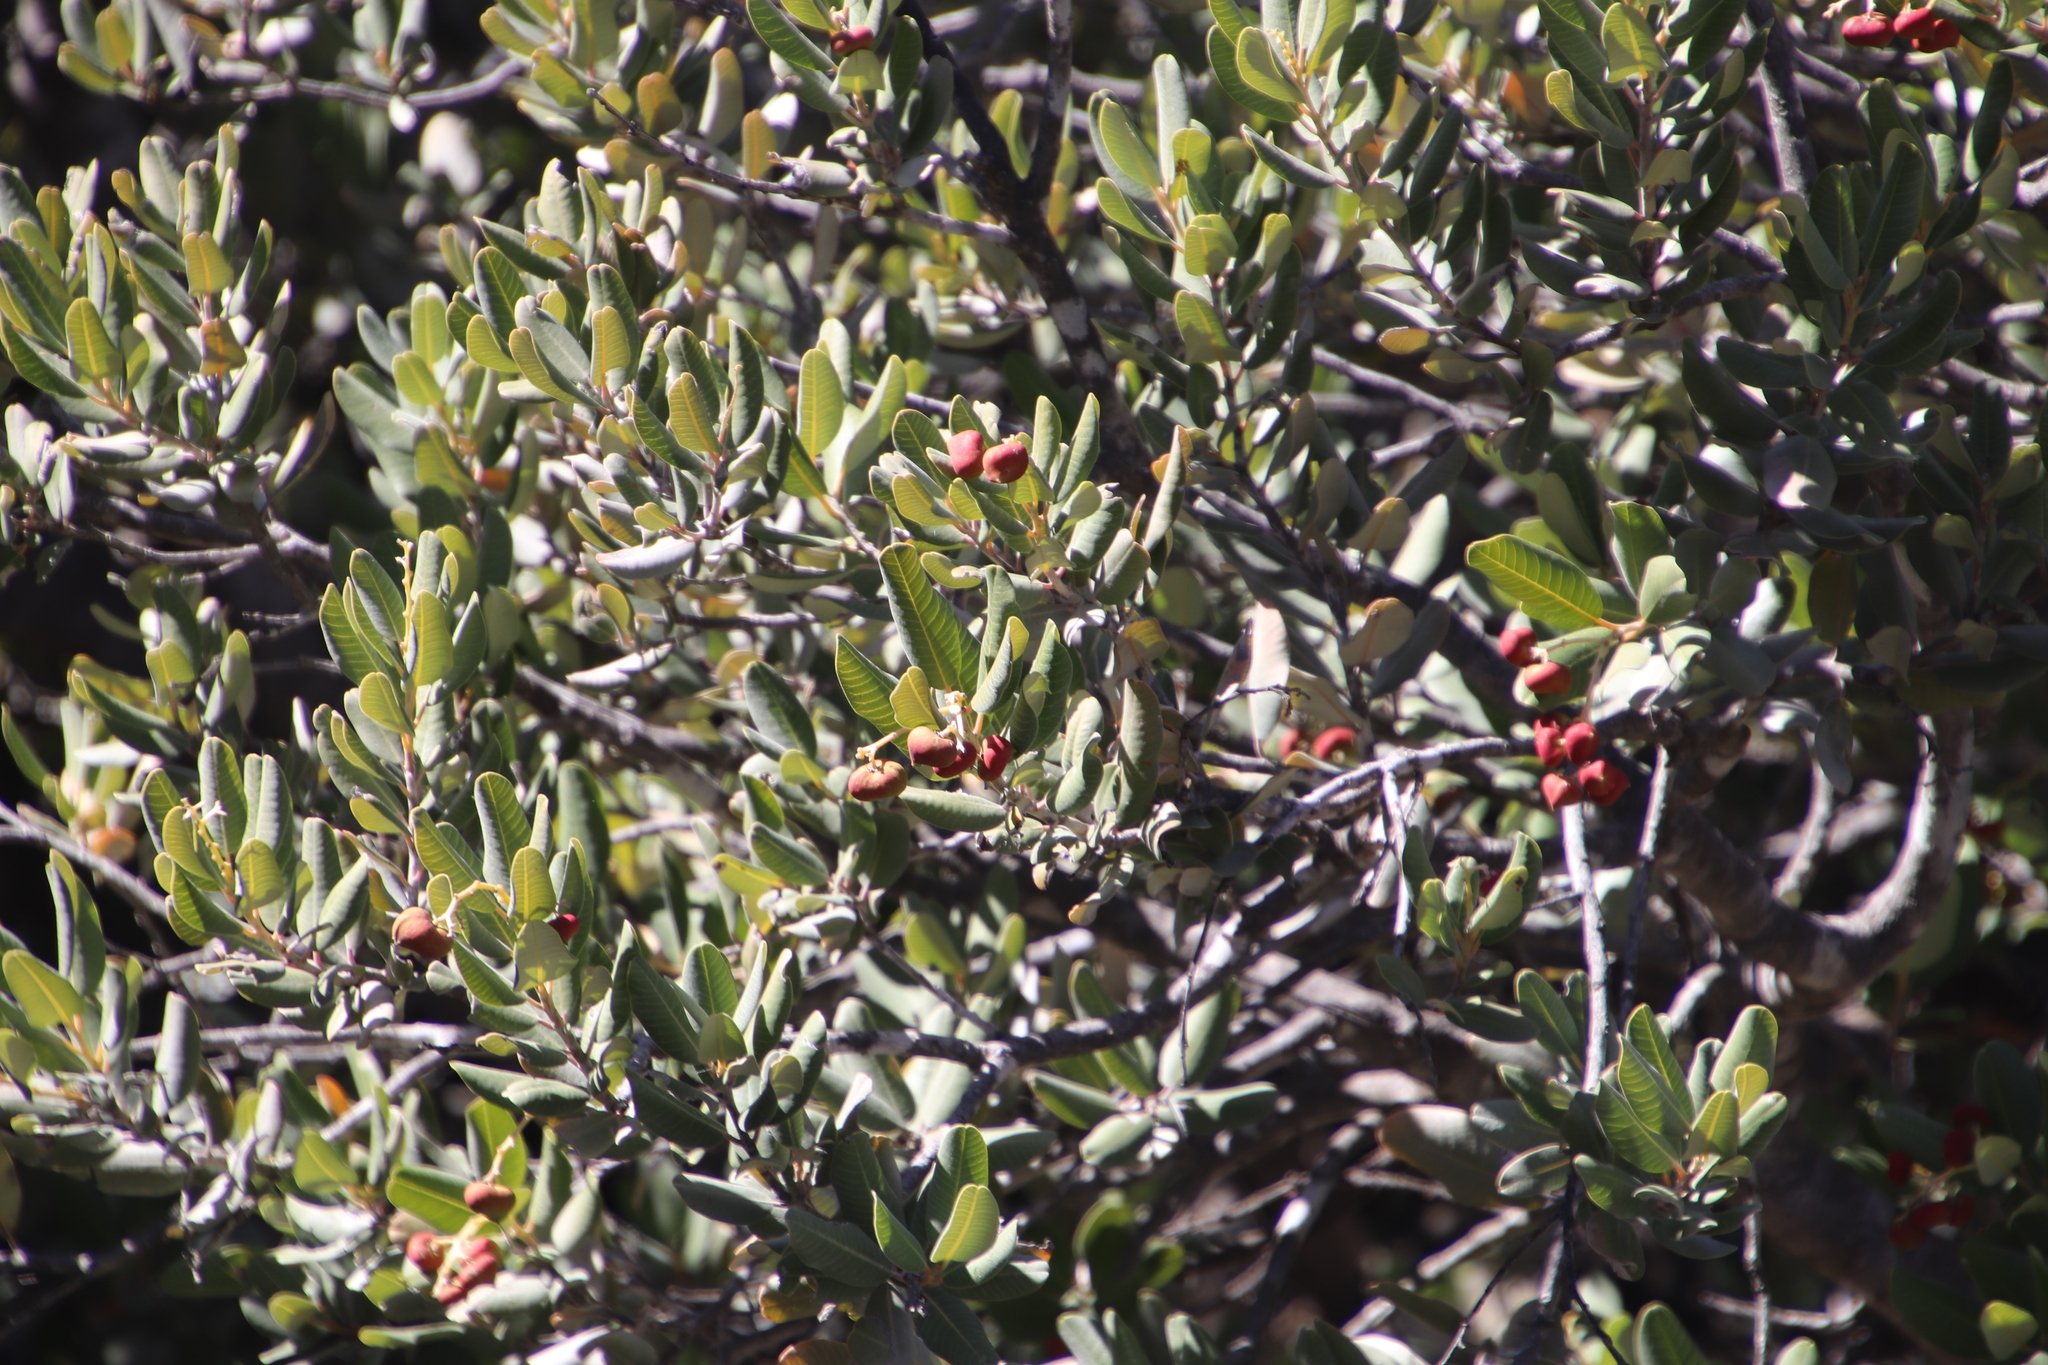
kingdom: Plantae
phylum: Tracheophyta
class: Magnoliopsida
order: Sapindales
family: Anacardiaceae
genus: Heeria
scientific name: Heeria argentea
